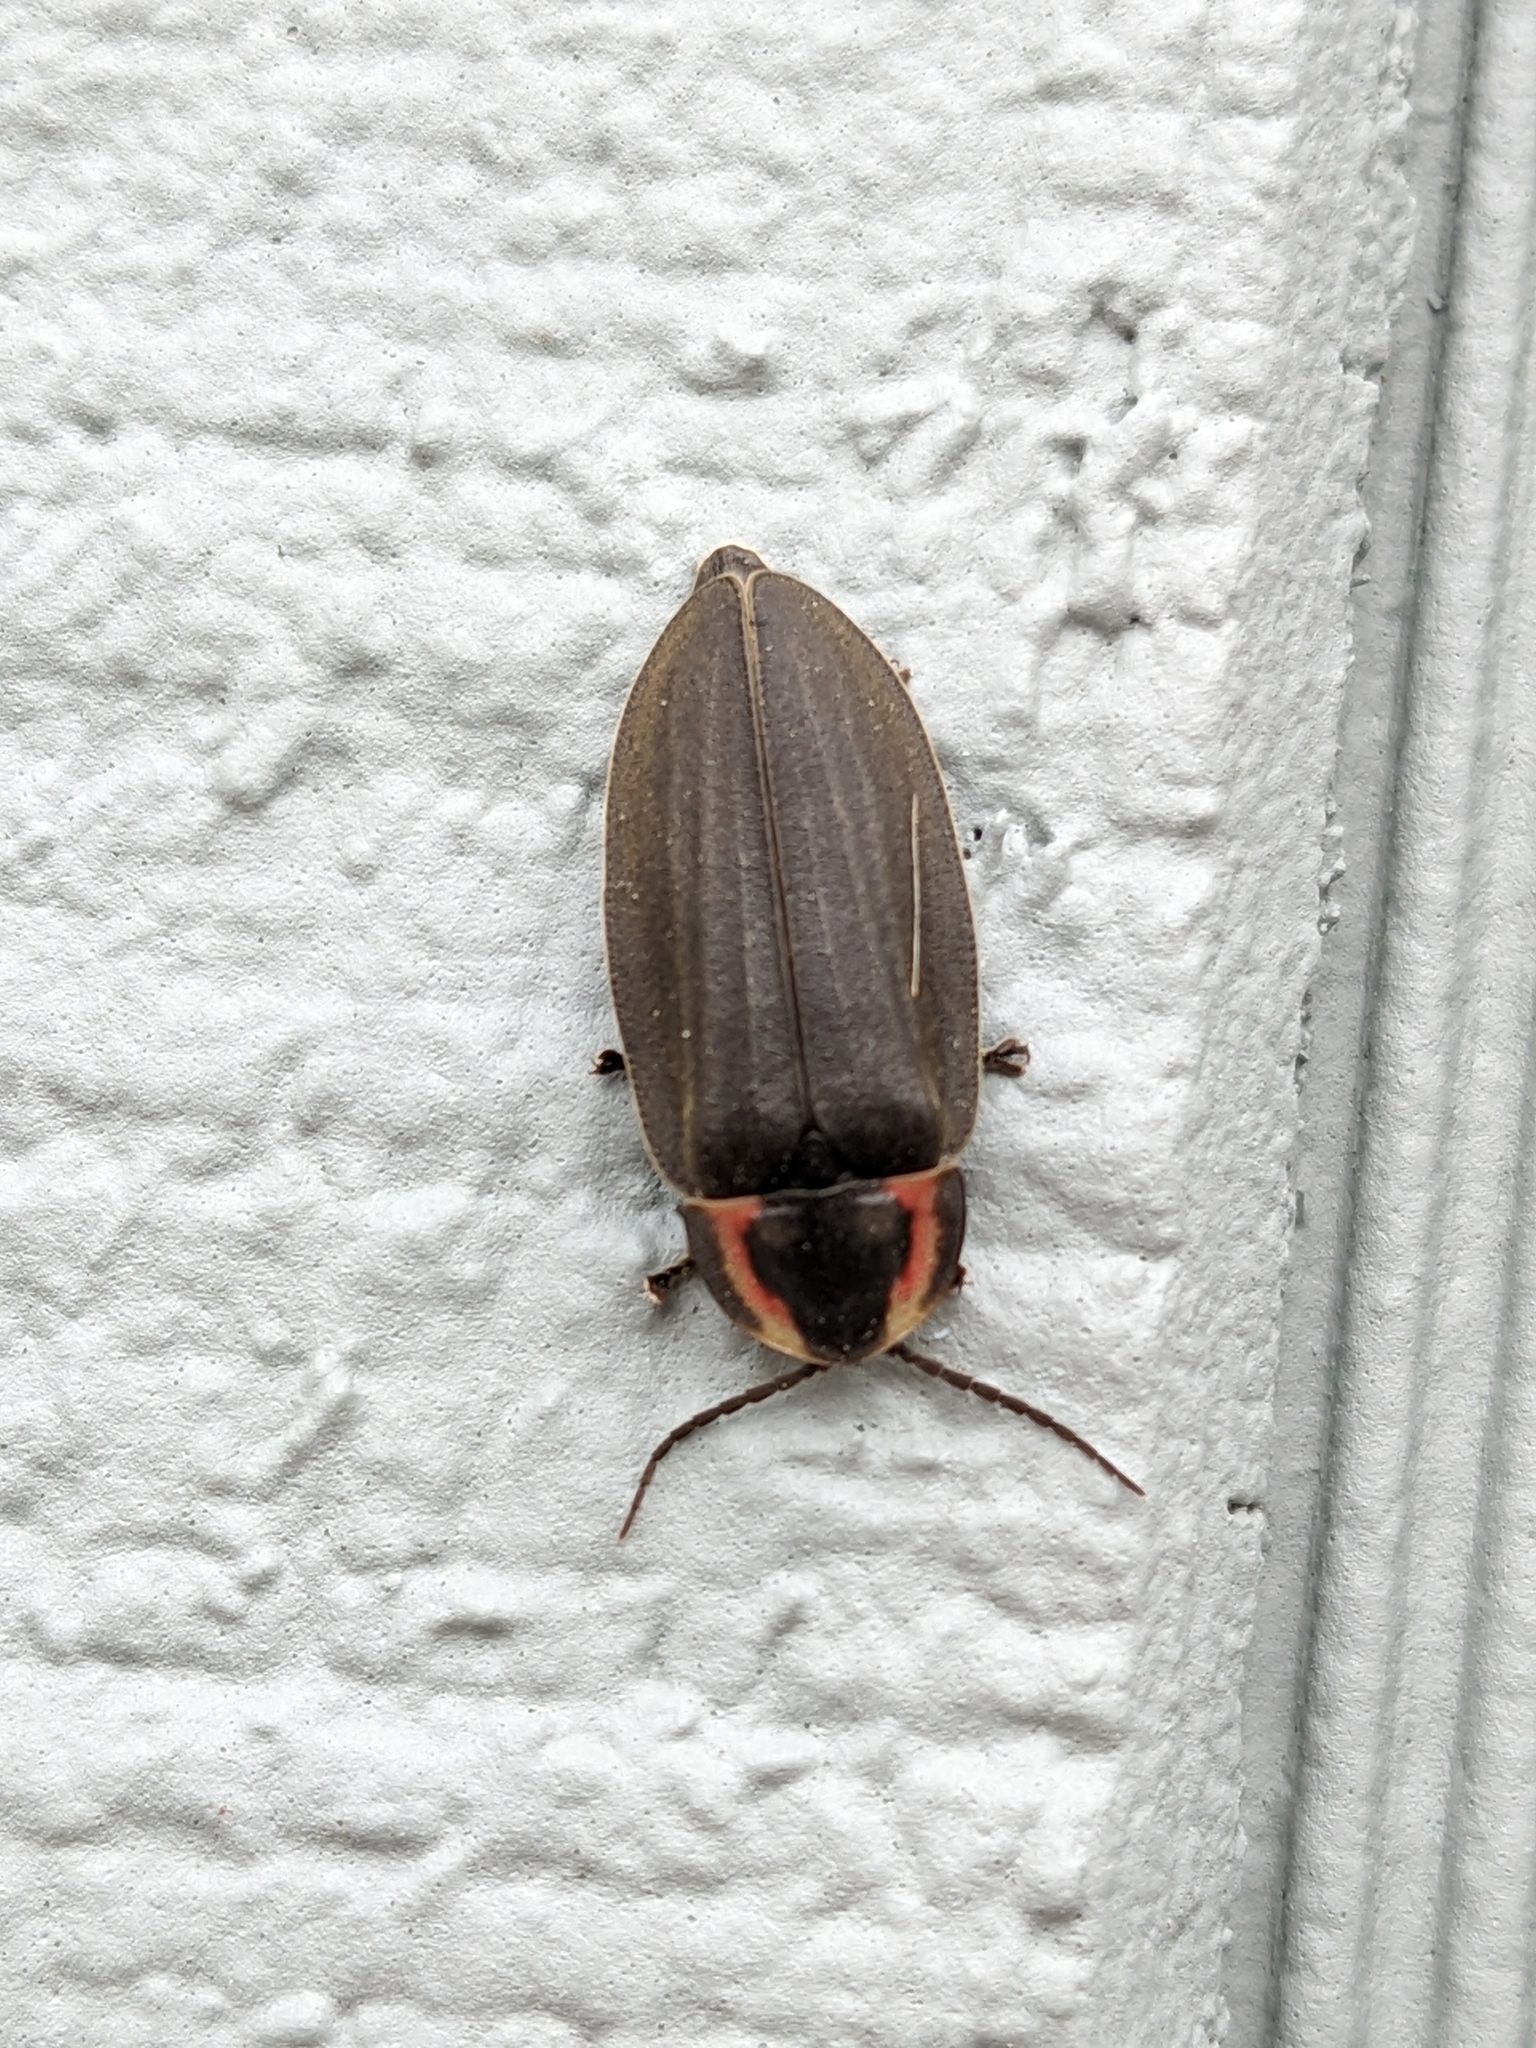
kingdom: Animalia
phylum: Arthropoda
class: Insecta
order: Coleoptera
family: Lampyridae
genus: Photinus
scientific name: Photinus corrusca
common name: Winter firefly
